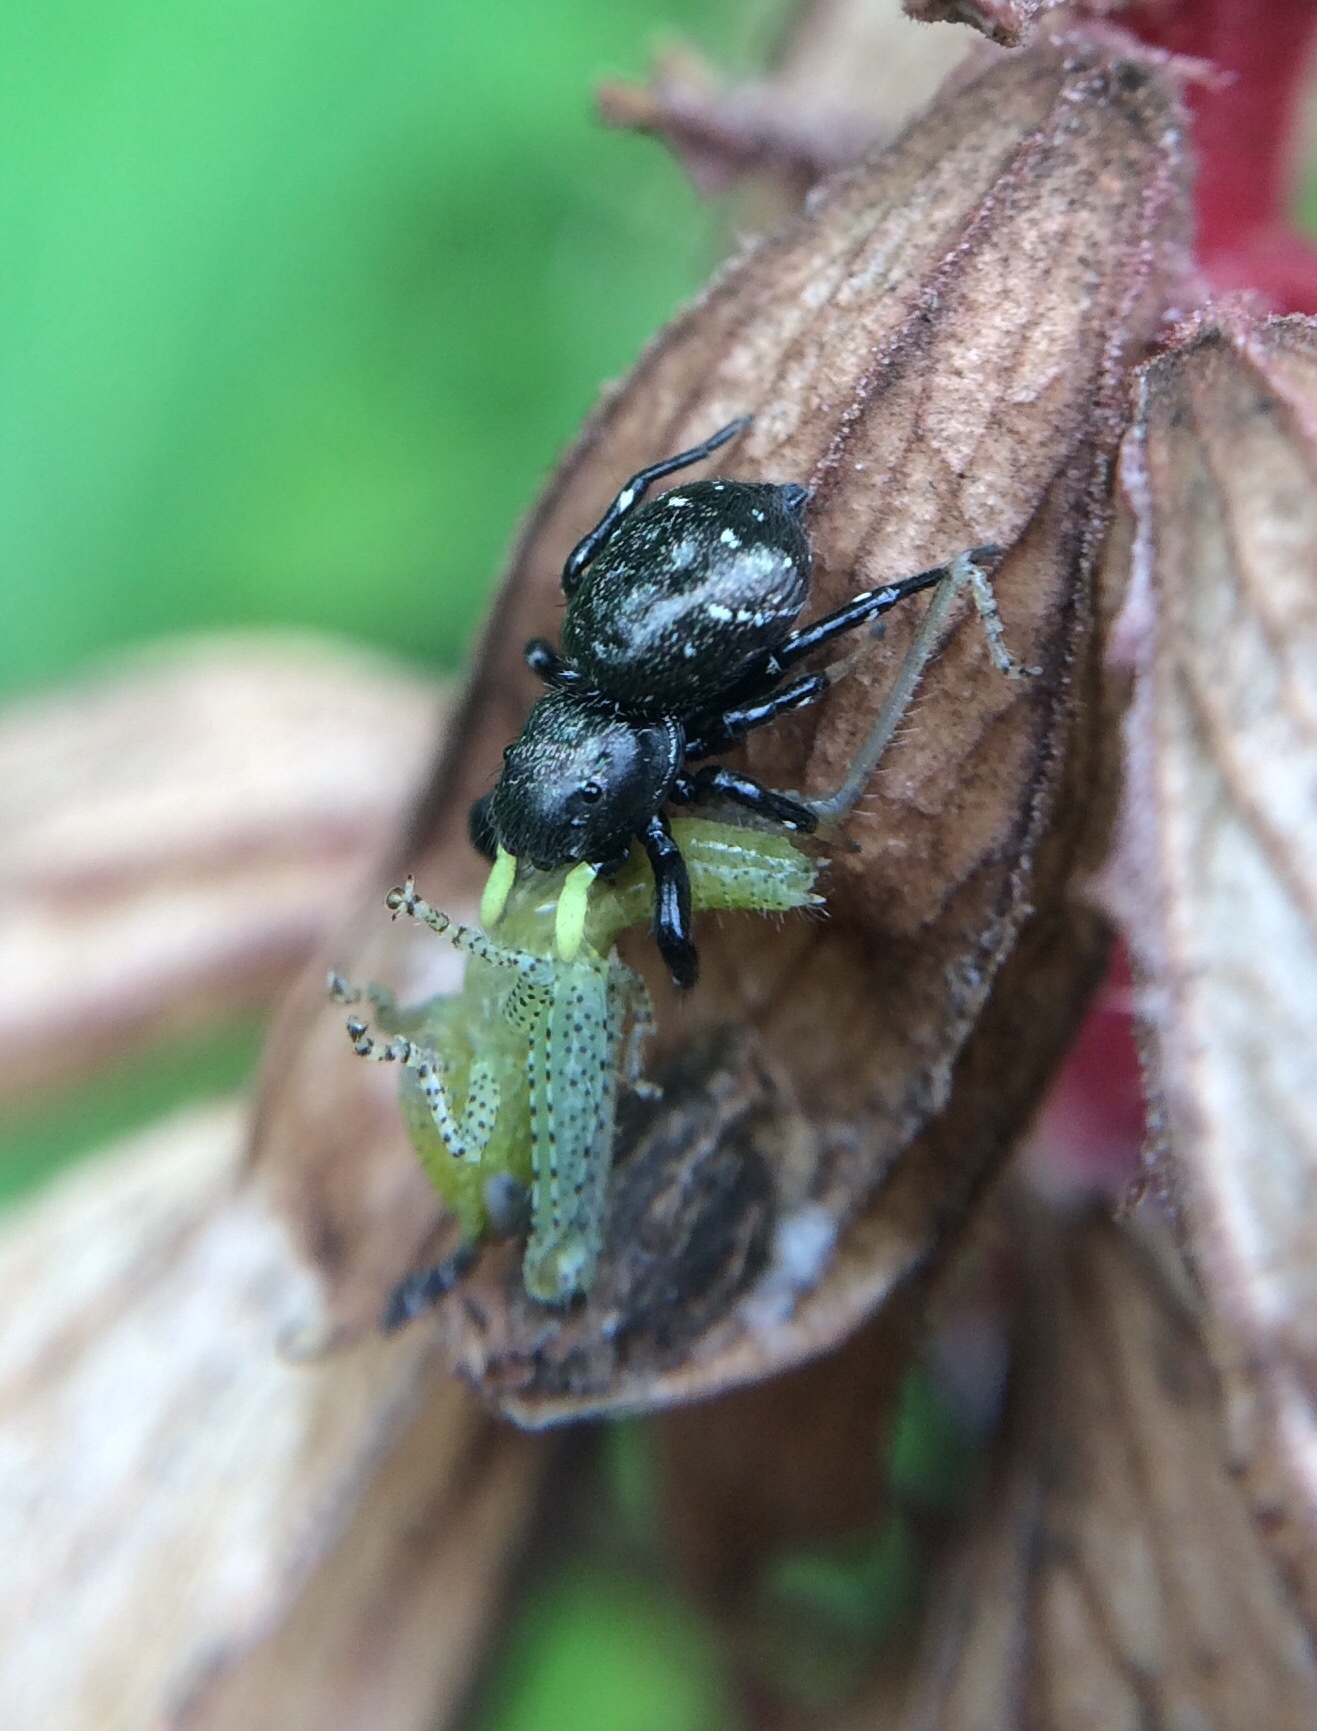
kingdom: Animalia
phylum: Arthropoda
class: Arachnida
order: Araneae
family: Salticidae
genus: Heliophanus
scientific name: Heliophanus
